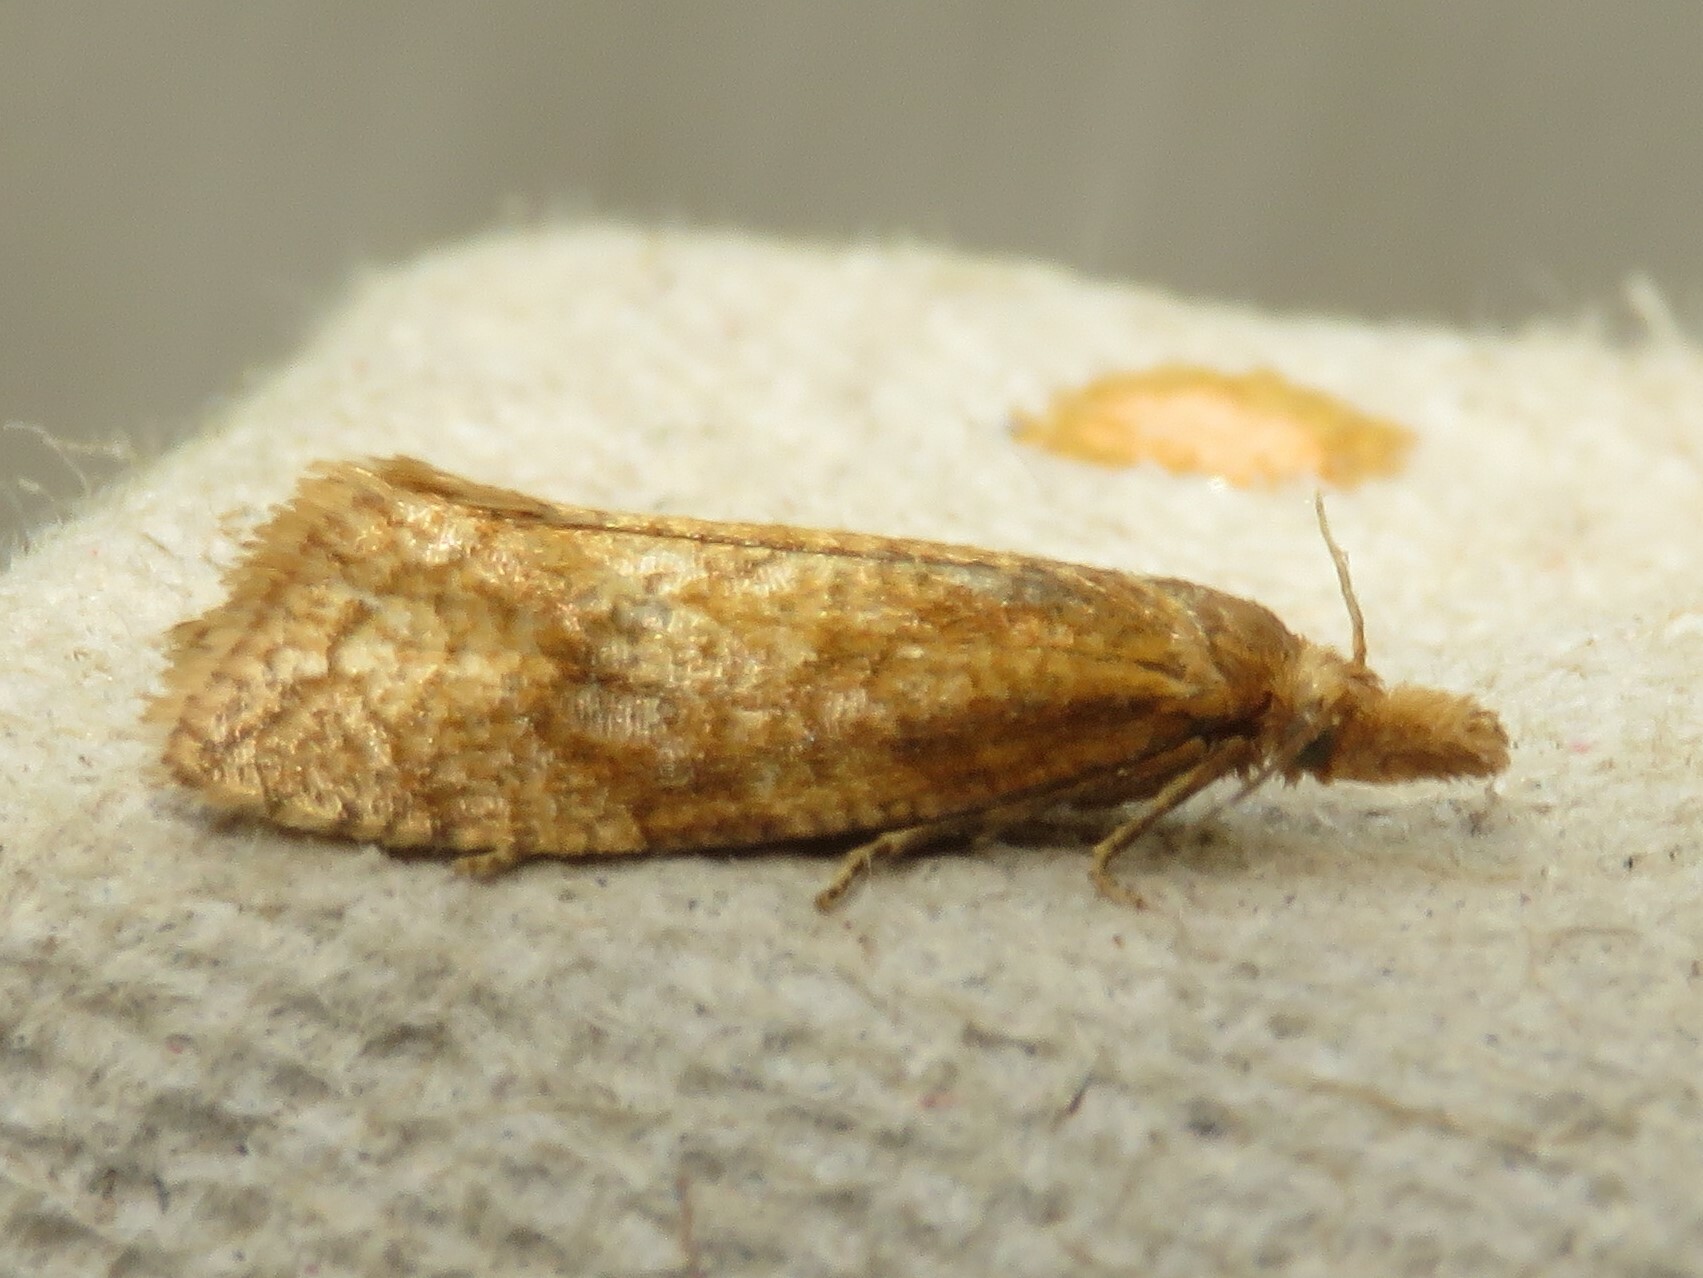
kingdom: Animalia
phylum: Arthropoda
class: Insecta
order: Lepidoptera
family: Tortricidae
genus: Aethes
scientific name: Aethes biscana
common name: Reddish aethes
